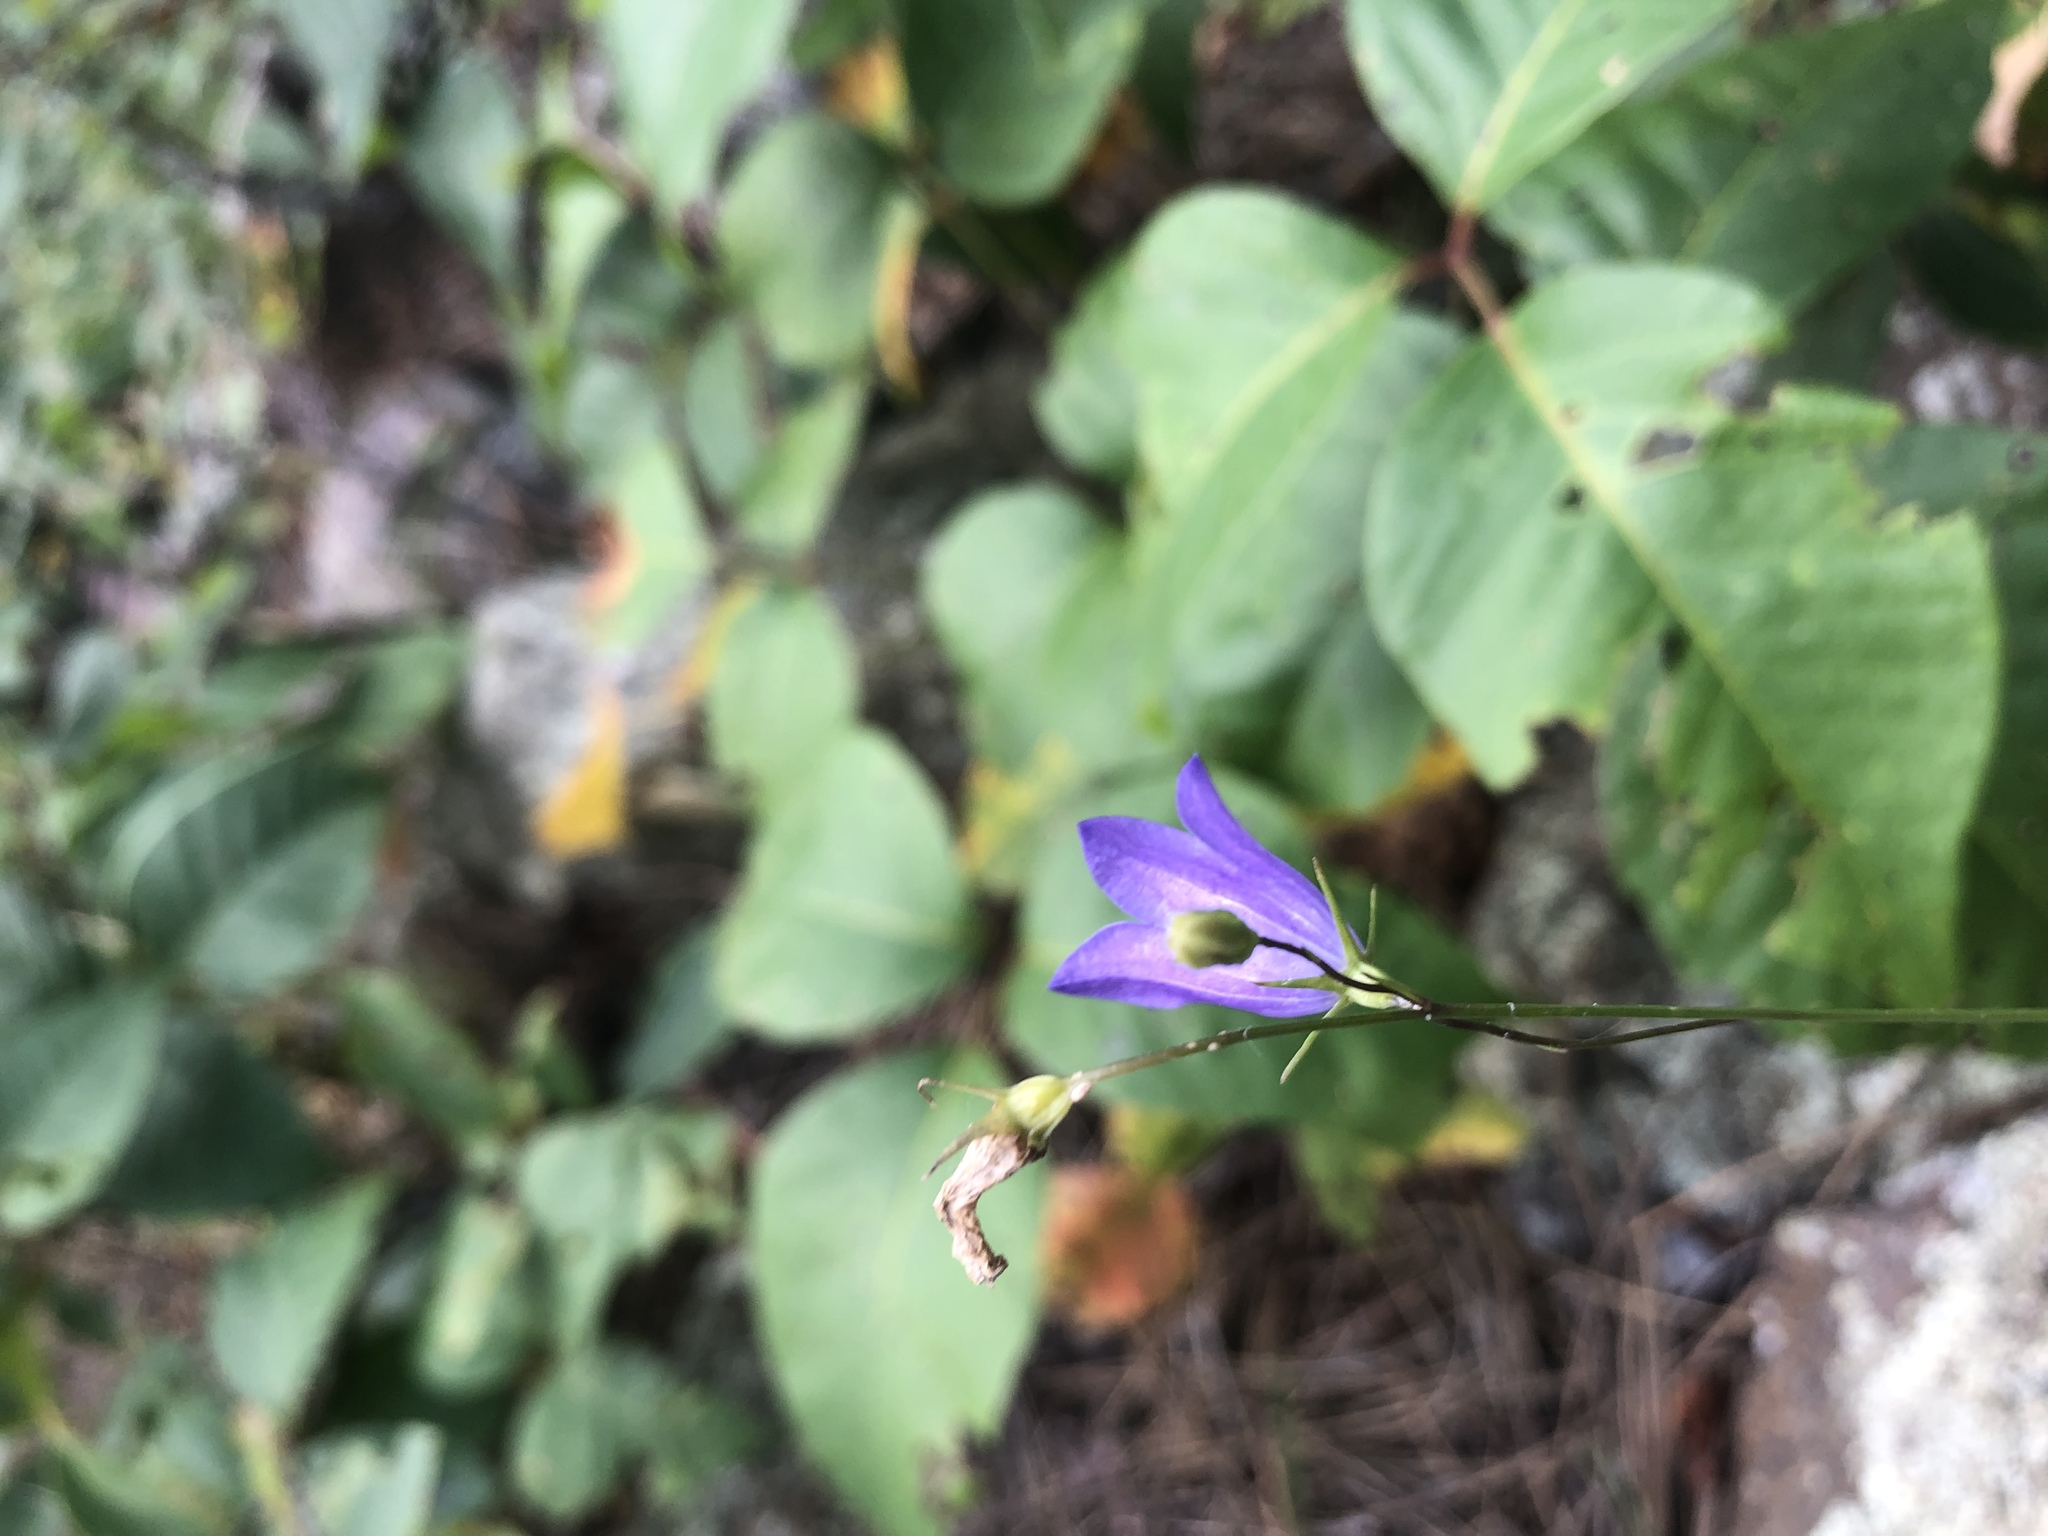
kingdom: Plantae
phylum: Tracheophyta
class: Magnoliopsida
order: Asterales
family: Campanulaceae
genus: Campanula
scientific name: Campanula petiolata
